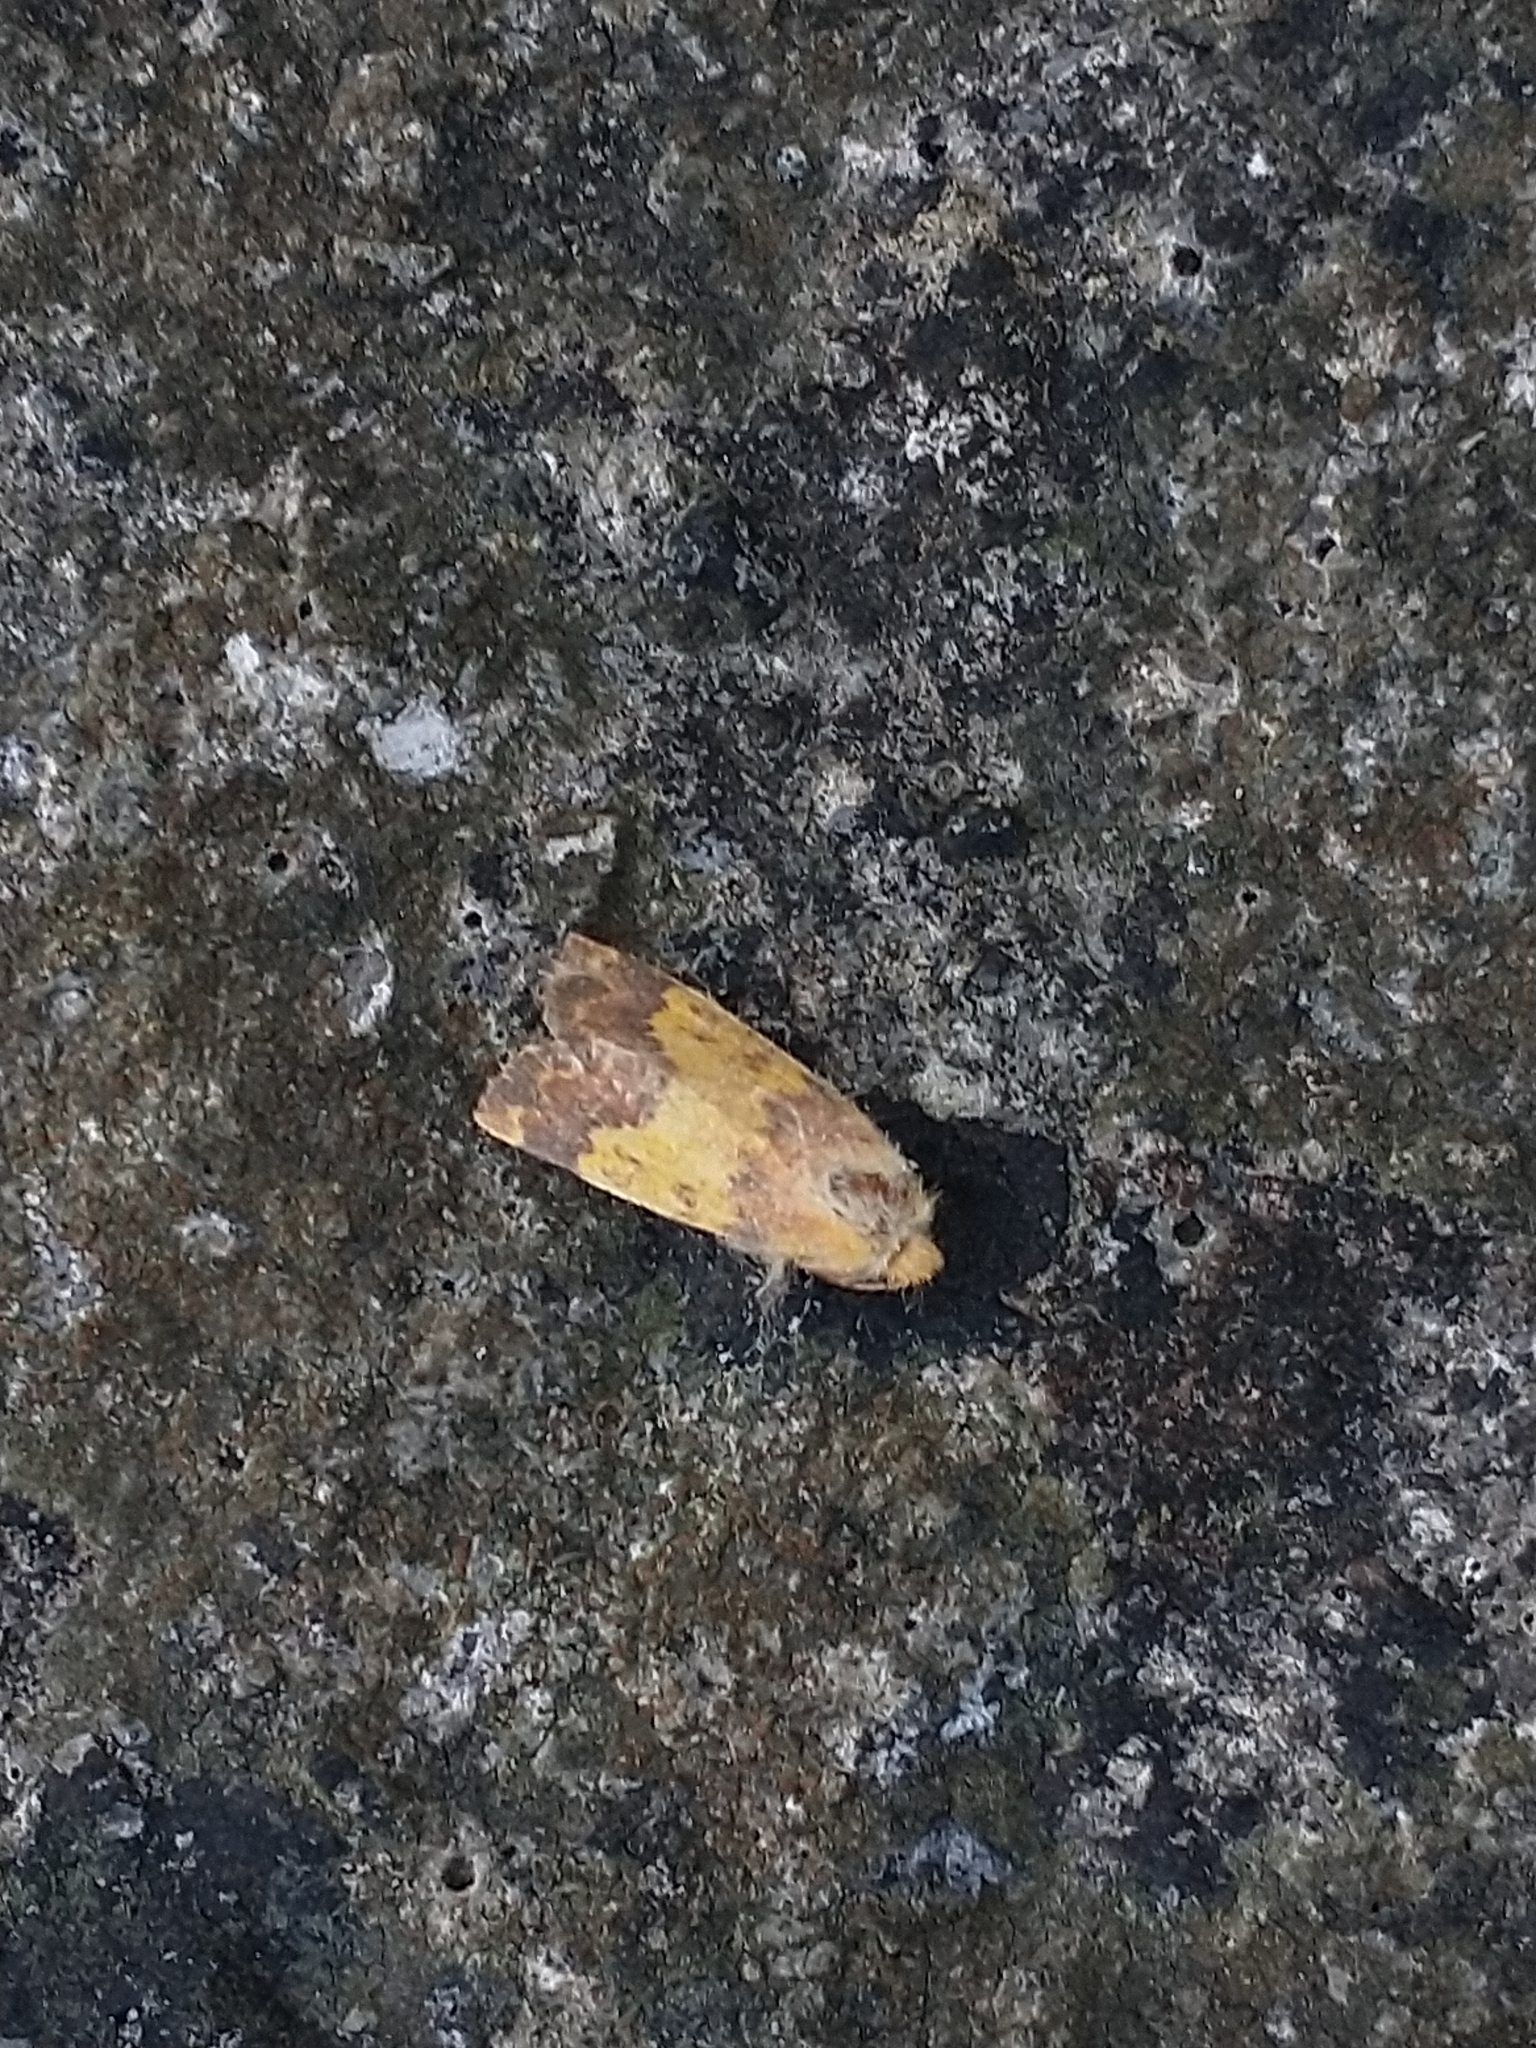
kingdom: Animalia
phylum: Arthropoda
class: Insecta
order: Lepidoptera
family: Noctuidae
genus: Tiliacea
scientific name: Tiliacea aurago
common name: Barred sallow
